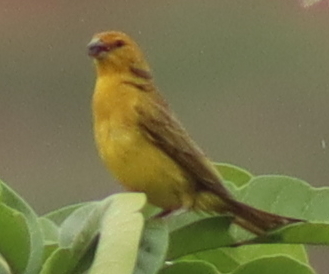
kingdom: Animalia
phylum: Chordata
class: Aves
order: Passeriformes
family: Thraupidae
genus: Sicalis
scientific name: Sicalis flaveola
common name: Saffron finch
